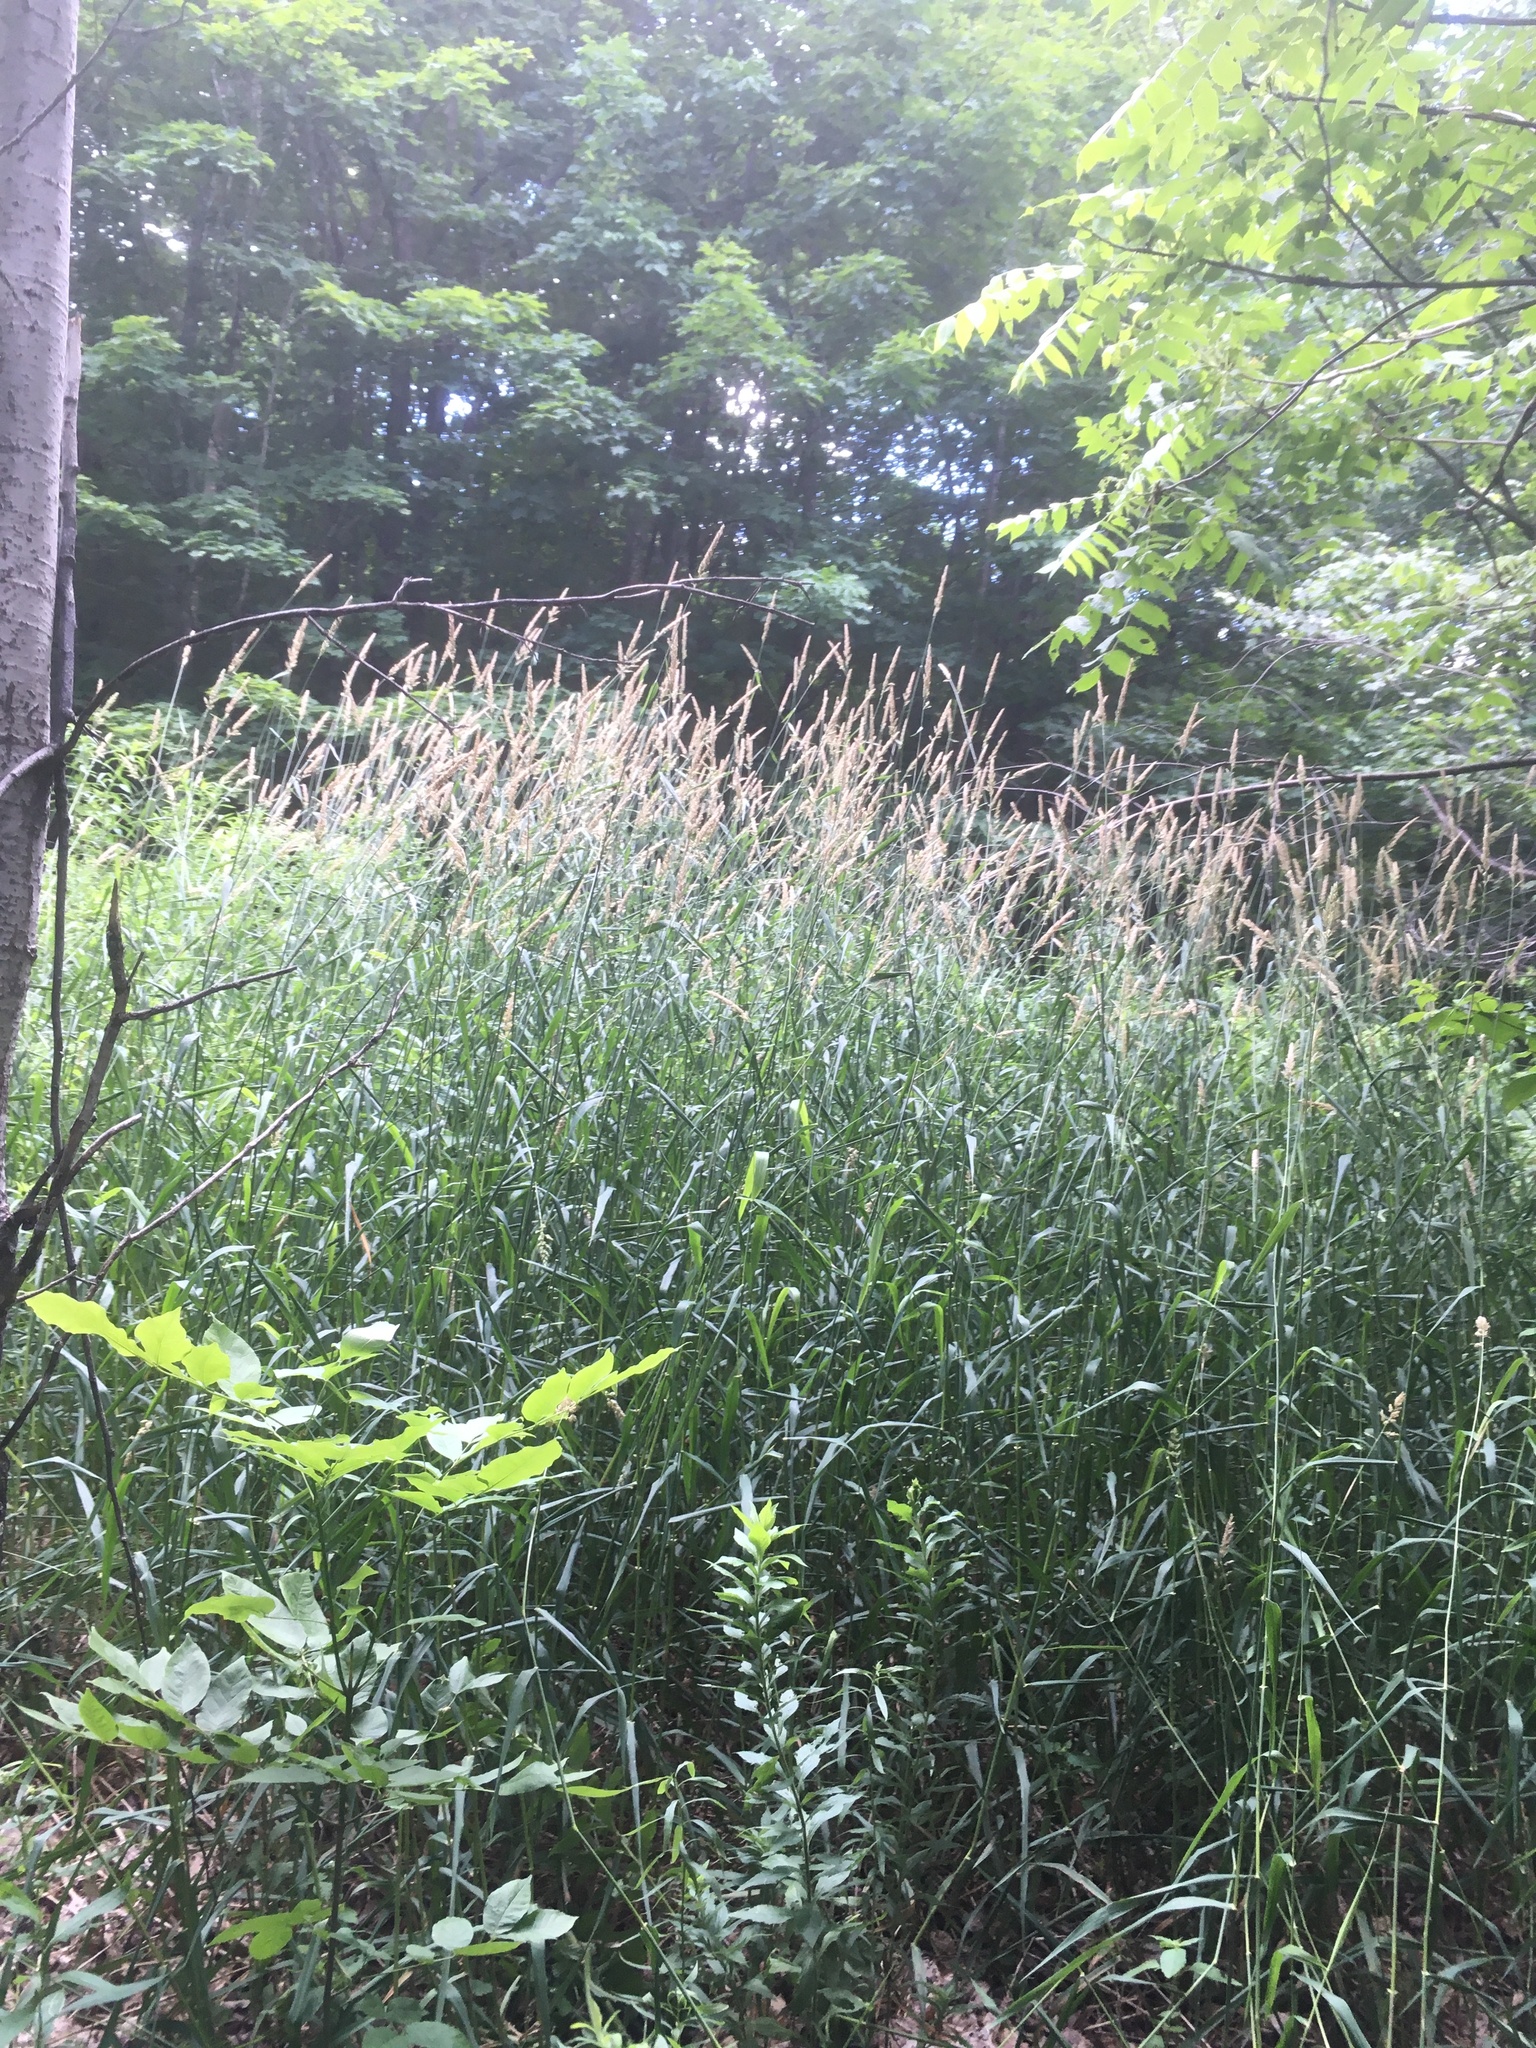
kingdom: Plantae
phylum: Tracheophyta
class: Liliopsida
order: Poales
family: Poaceae
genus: Phalaris
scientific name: Phalaris arundinacea
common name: Reed canary-grass
